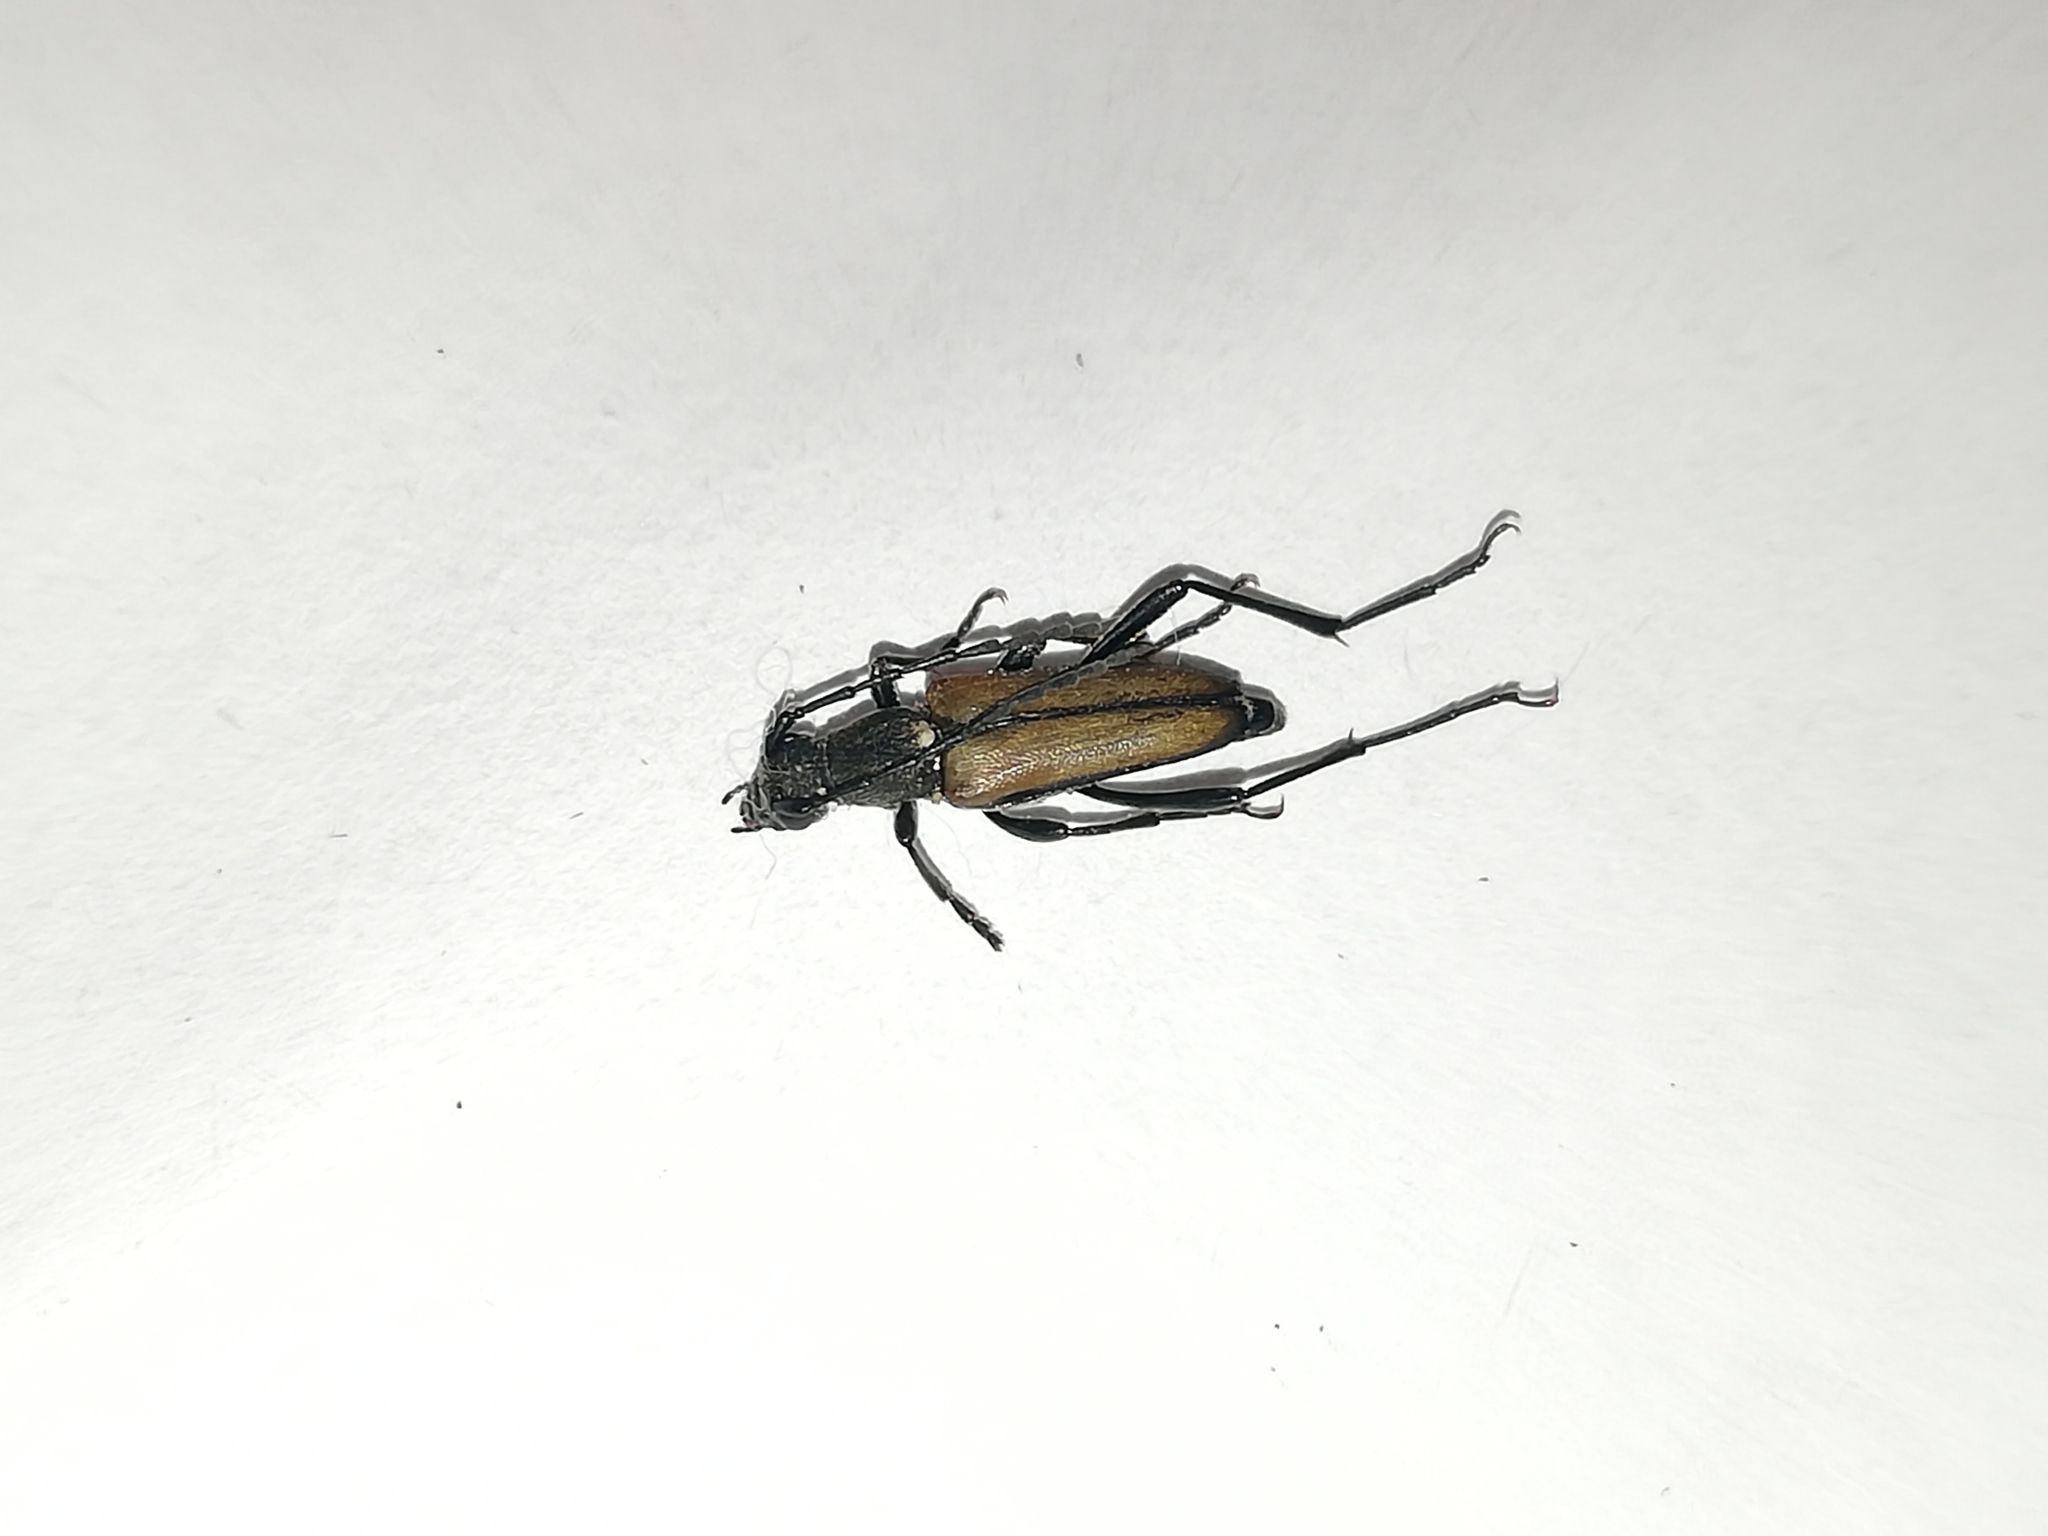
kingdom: Animalia
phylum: Arthropoda
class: Insecta
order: Coleoptera
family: Cerambycidae
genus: Anastrangalia
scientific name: Anastrangalia reyi
